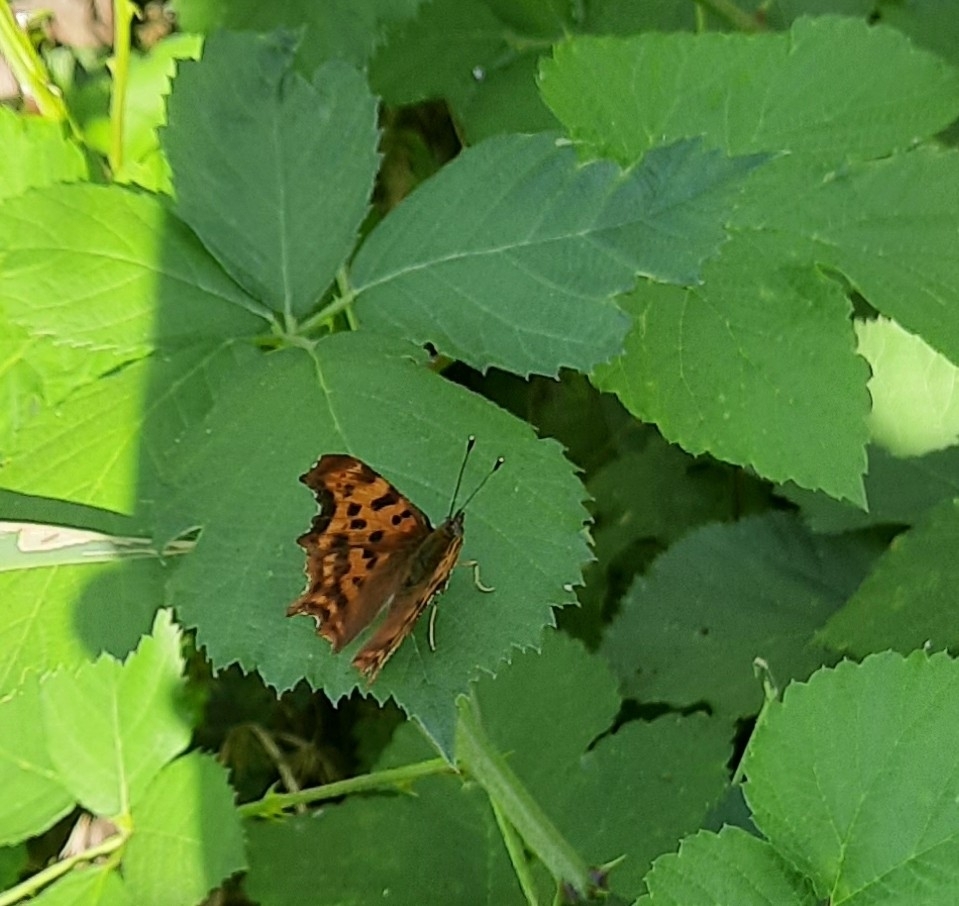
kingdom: Animalia
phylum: Arthropoda
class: Insecta
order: Lepidoptera
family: Nymphalidae
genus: Polygonia
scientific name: Polygonia c-album
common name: Comma
